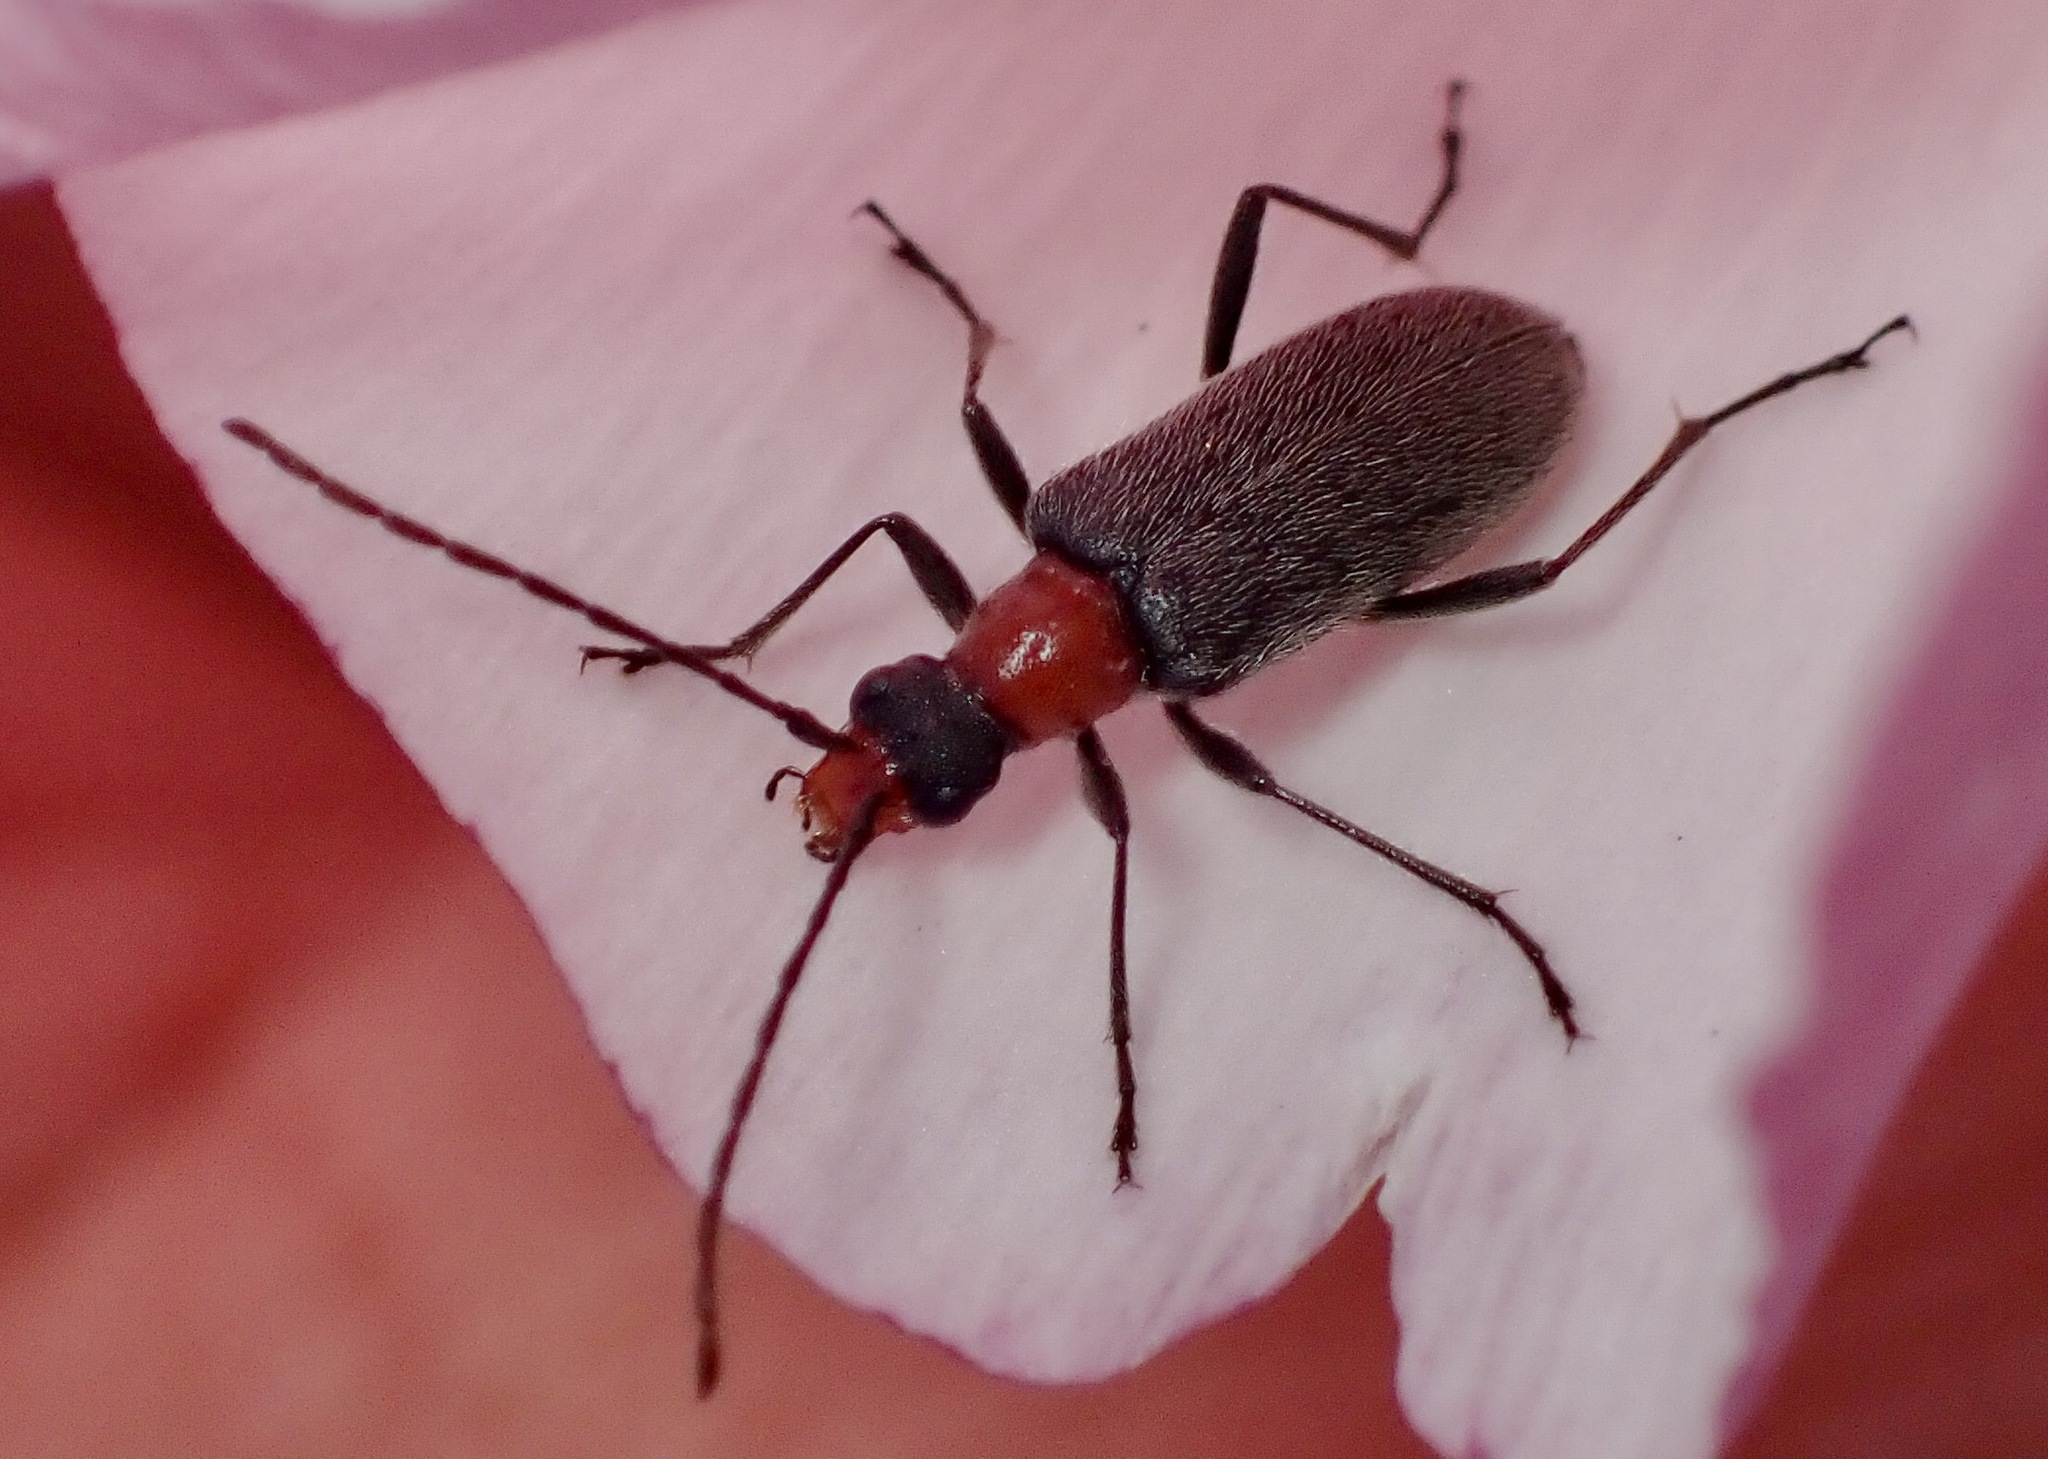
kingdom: Animalia
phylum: Arthropoda
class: Insecta
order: Coleoptera
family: Cerambycidae
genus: Cortodera
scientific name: Cortodera falsa
